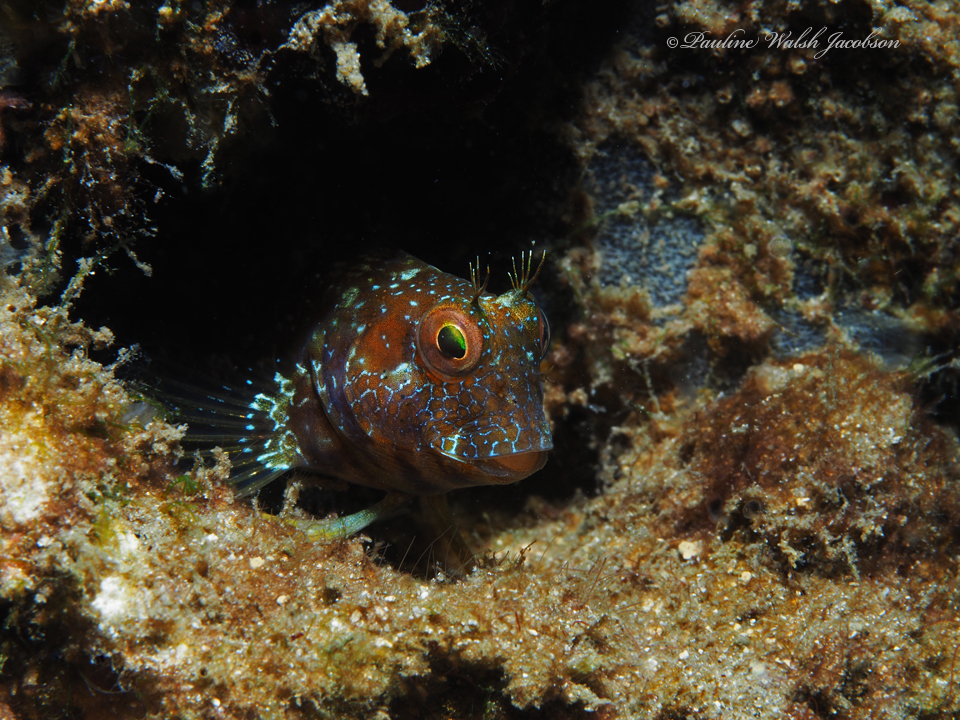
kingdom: Animalia
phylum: Chordata
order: Perciformes
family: Blenniidae
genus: Parablennius
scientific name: Parablennius marmoreus
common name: Seaweed blenny
